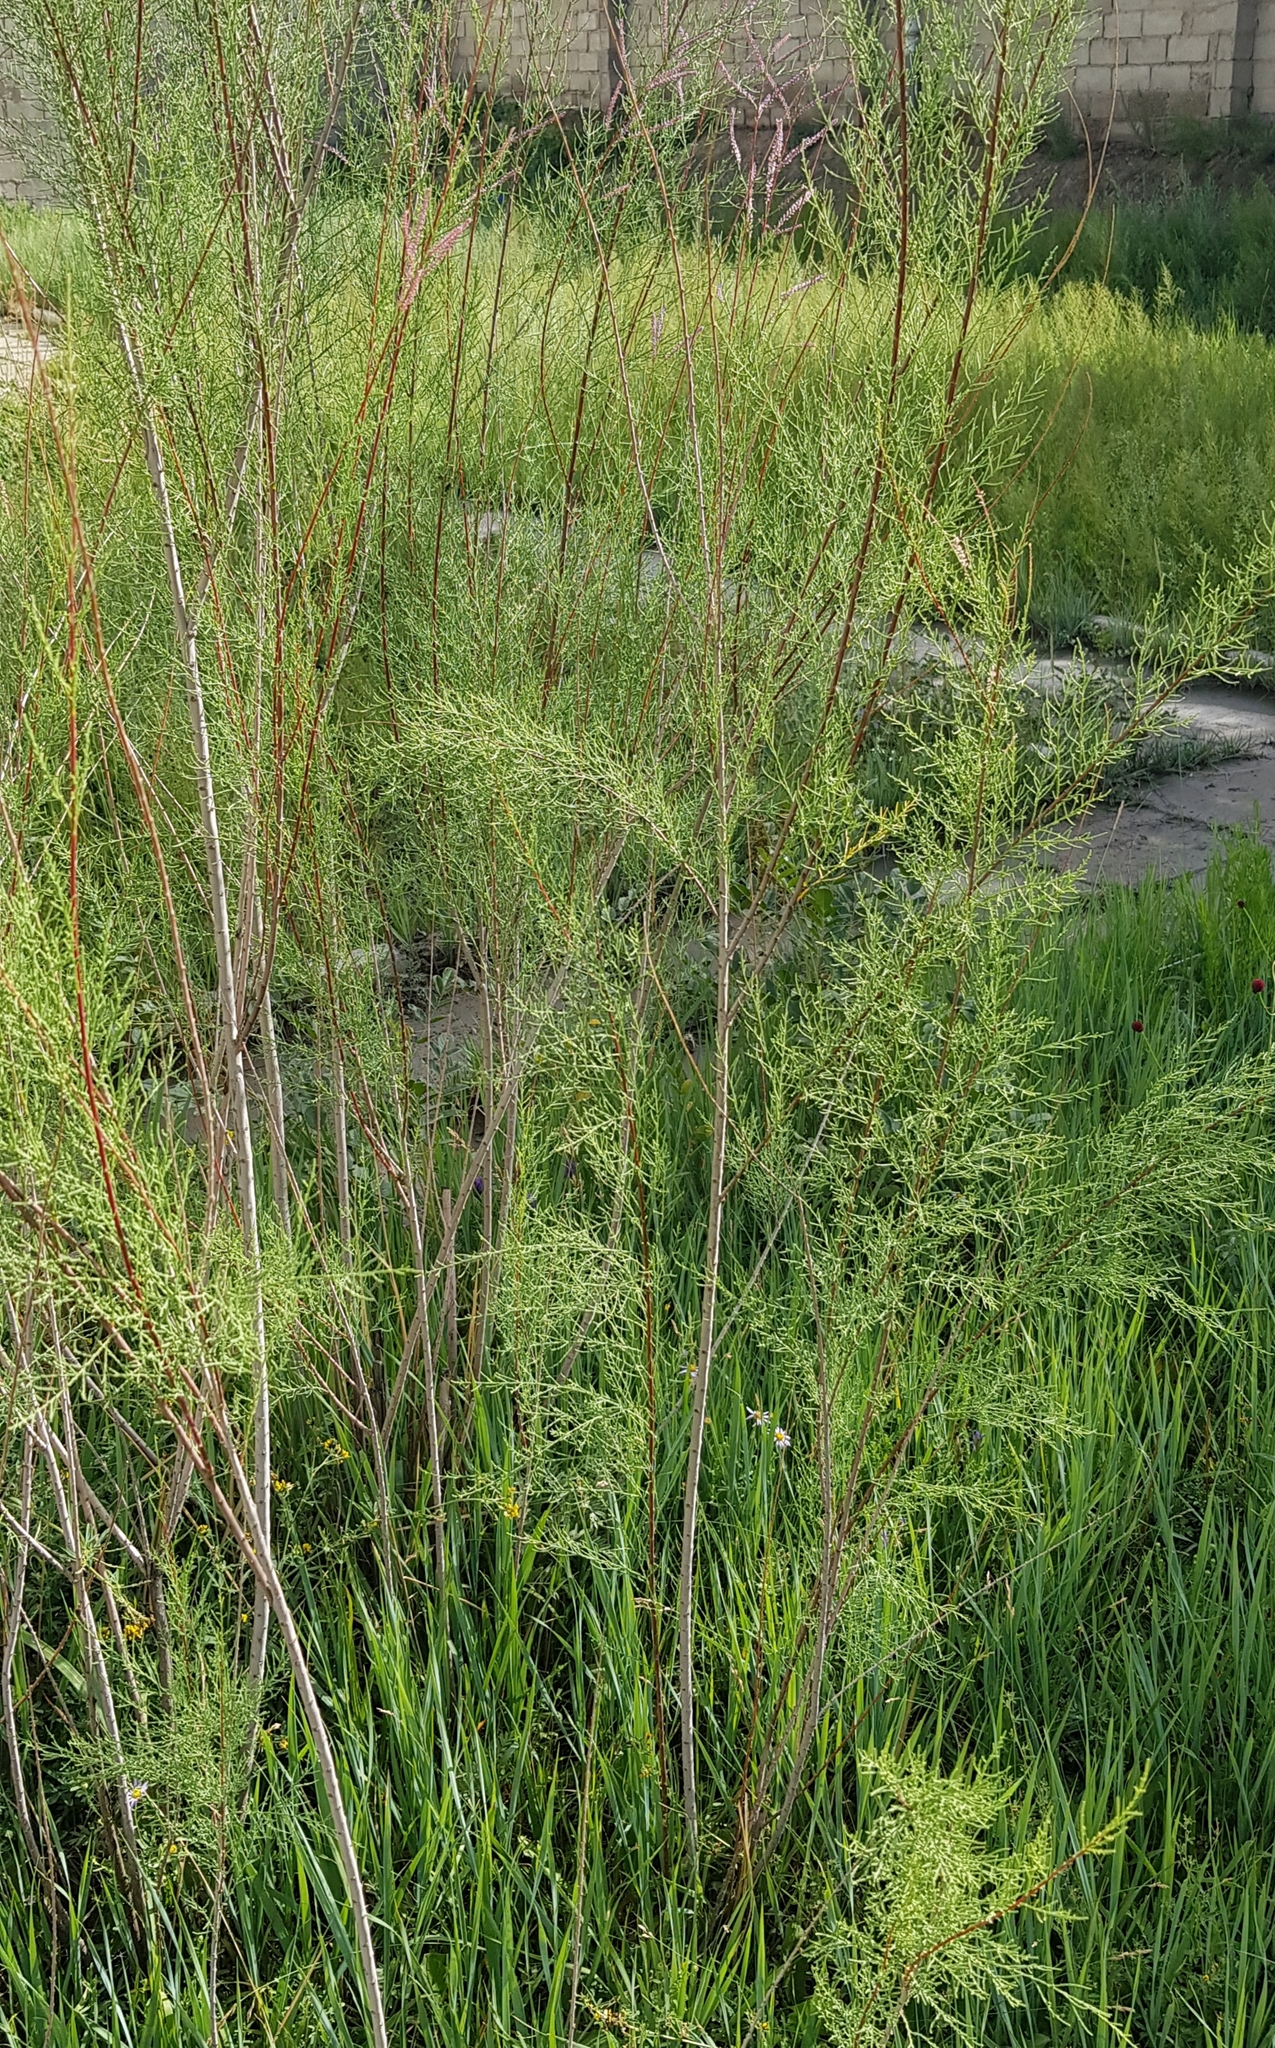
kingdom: Plantae
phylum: Tracheophyta
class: Magnoliopsida
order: Caryophyllales
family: Tamaricaceae
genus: Tamarix
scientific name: Tamarix ramosissima
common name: Pink tamarisk
